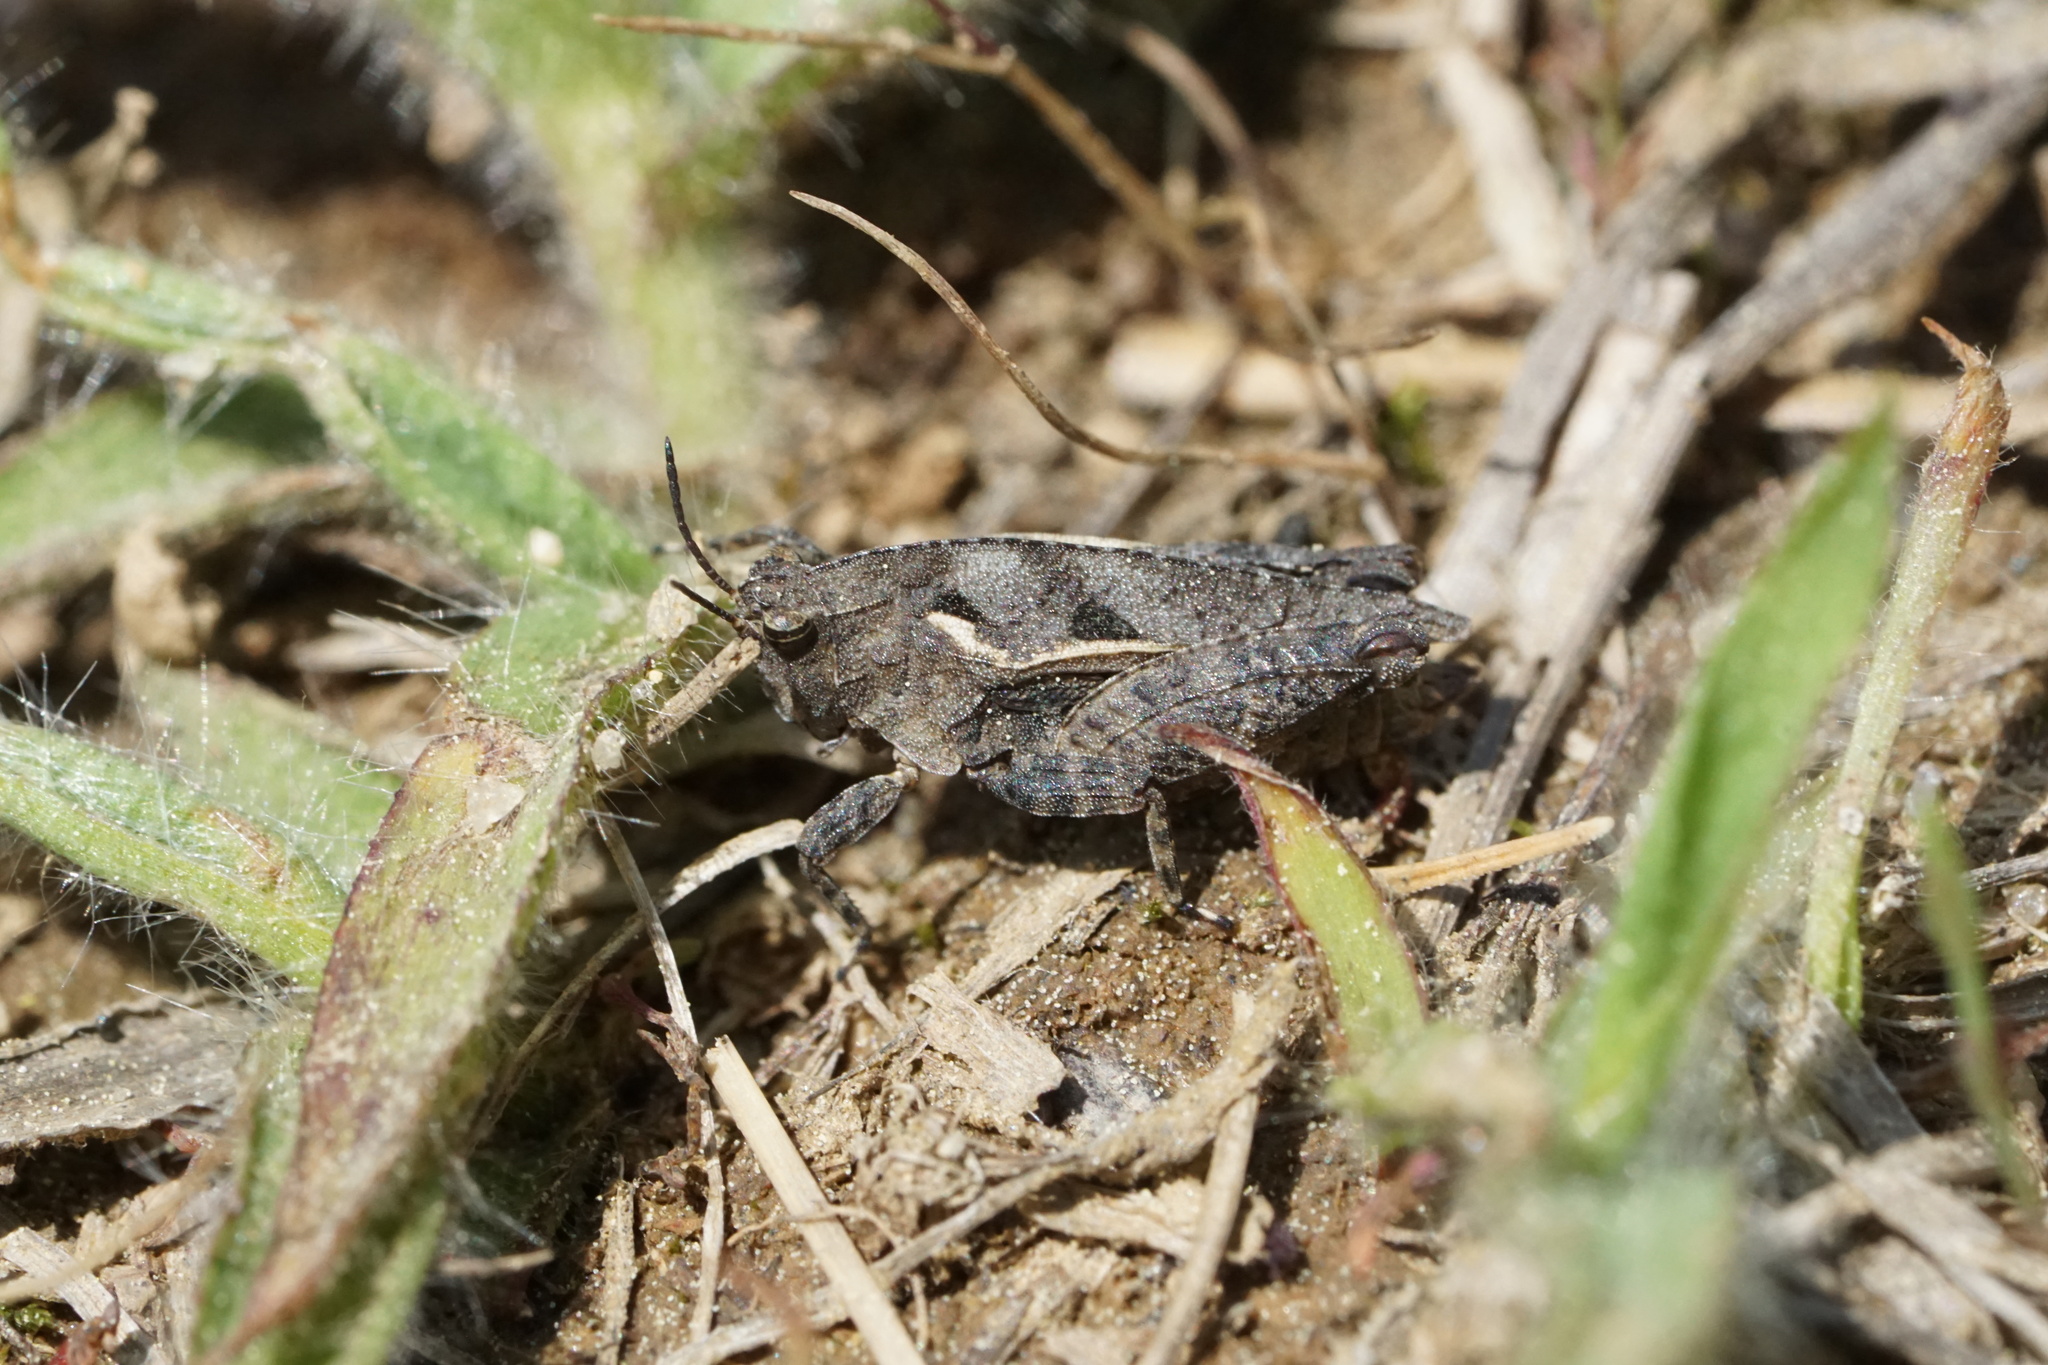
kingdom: Animalia
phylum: Arthropoda
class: Insecta
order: Orthoptera
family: Tetrigidae
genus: Nomotettix
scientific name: Nomotettix cristatus
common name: Crested grouse locust
